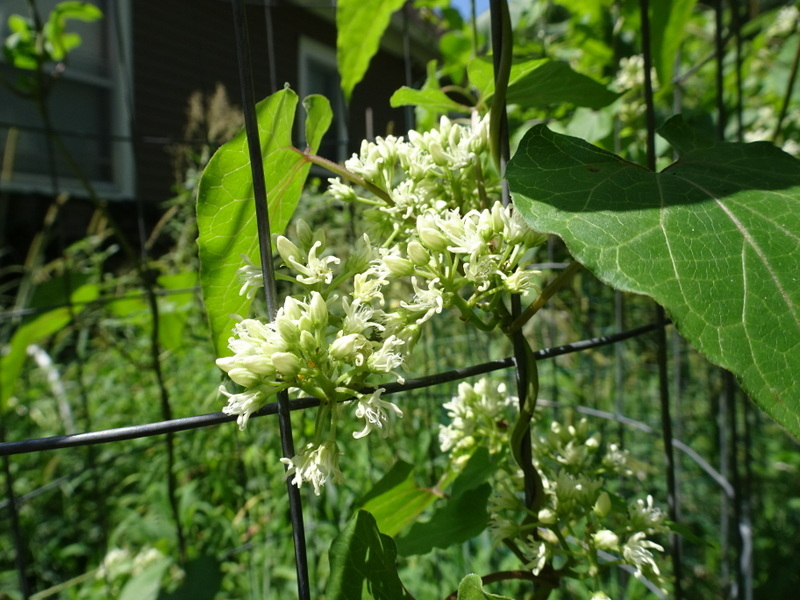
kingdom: Plantae
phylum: Tracheophyta
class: Magnoliopsida
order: Gentianales
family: Apocynaceae
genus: Cynanchum
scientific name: Cynanchum laeve
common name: Sandvine
